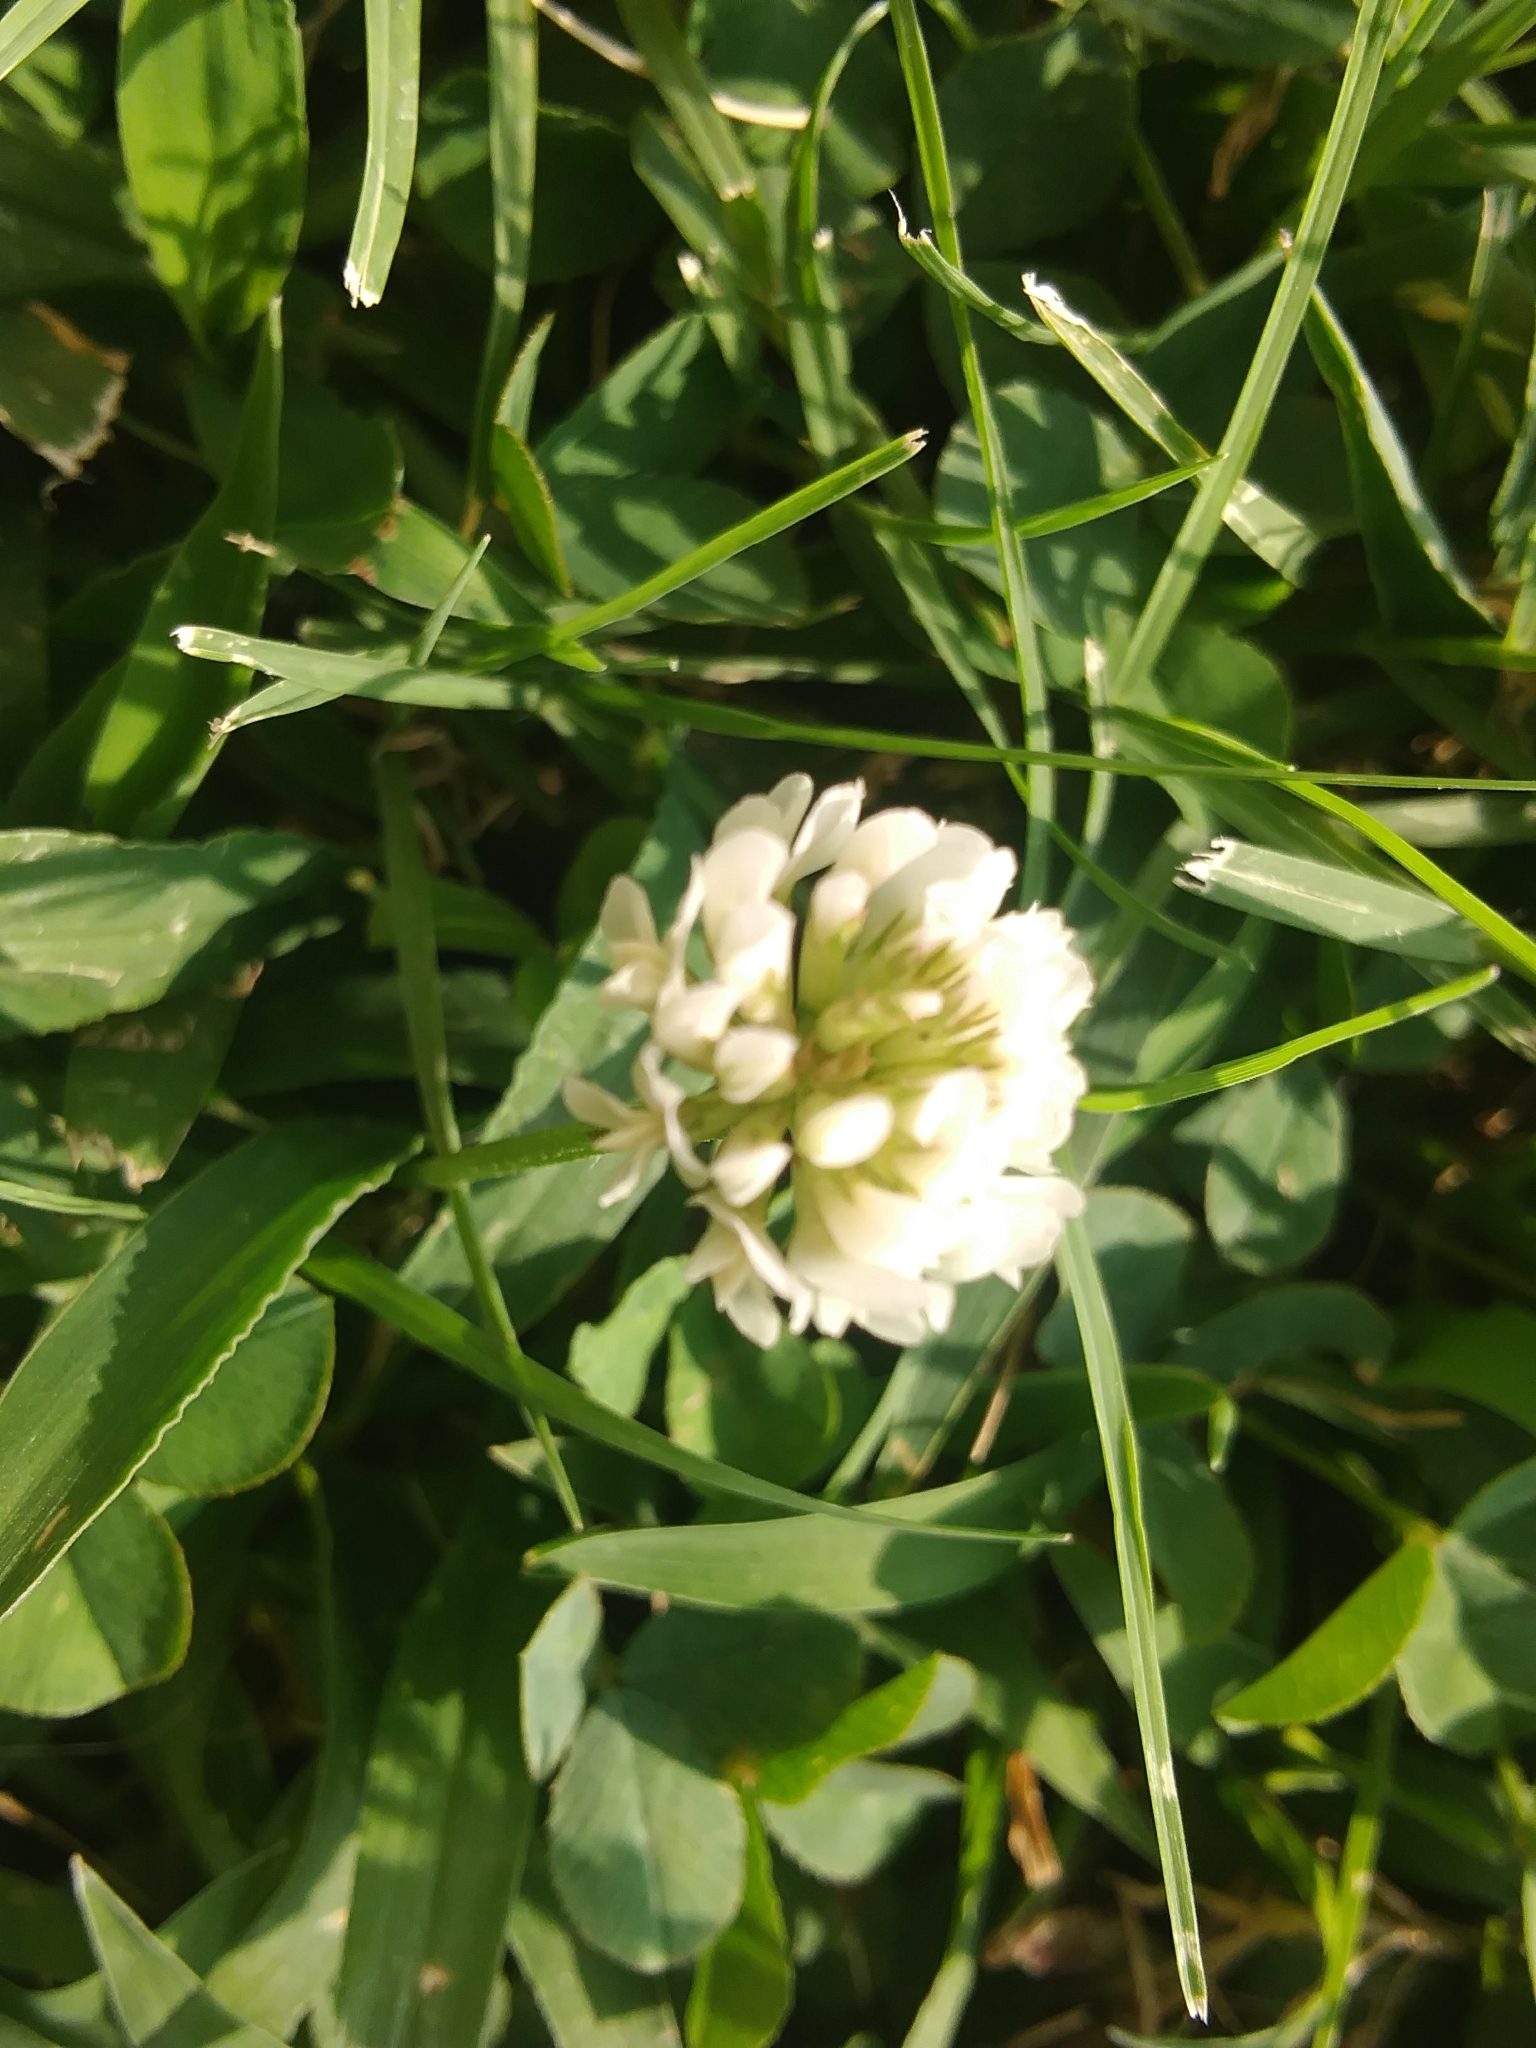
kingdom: Plantae
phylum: Tracheophyta
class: Magnoliopsida
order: Fabales
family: Fabaceae
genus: Trifolium
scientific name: Trifolium repens
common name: White clover
